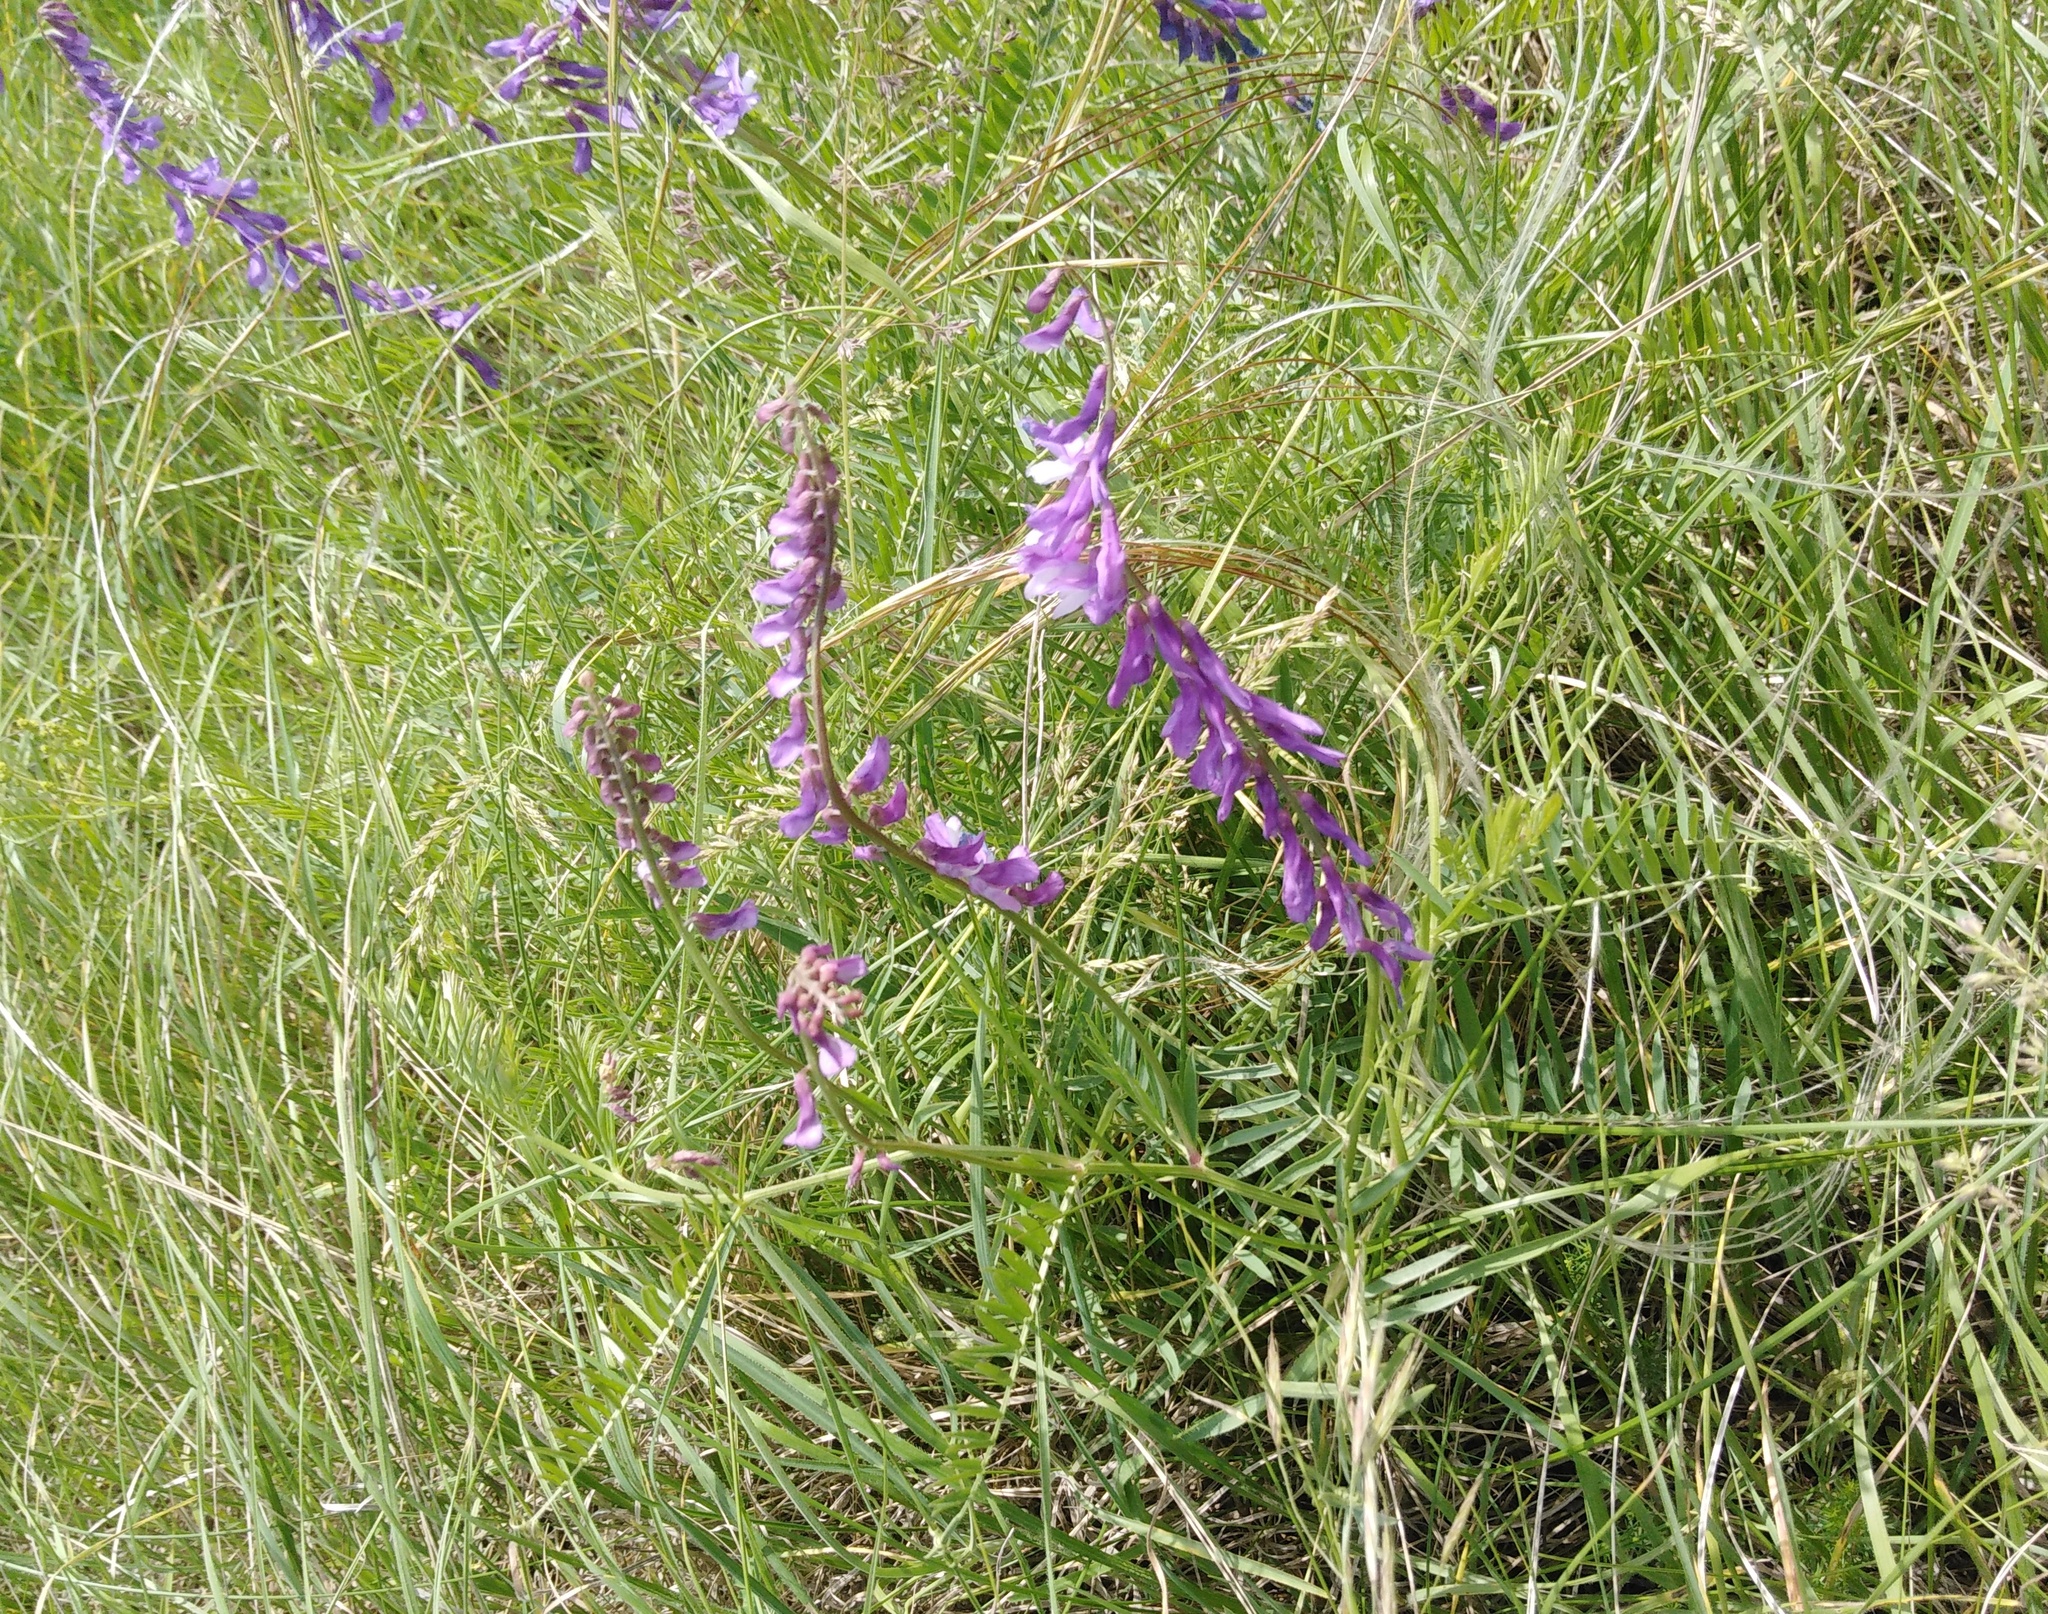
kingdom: Plantae
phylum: Tracheophyta
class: Magnoliopsida
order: Fabales
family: Fabaceae
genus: Vicia
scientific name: Vicia tenuifolia
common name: Fine-leaved vetch
